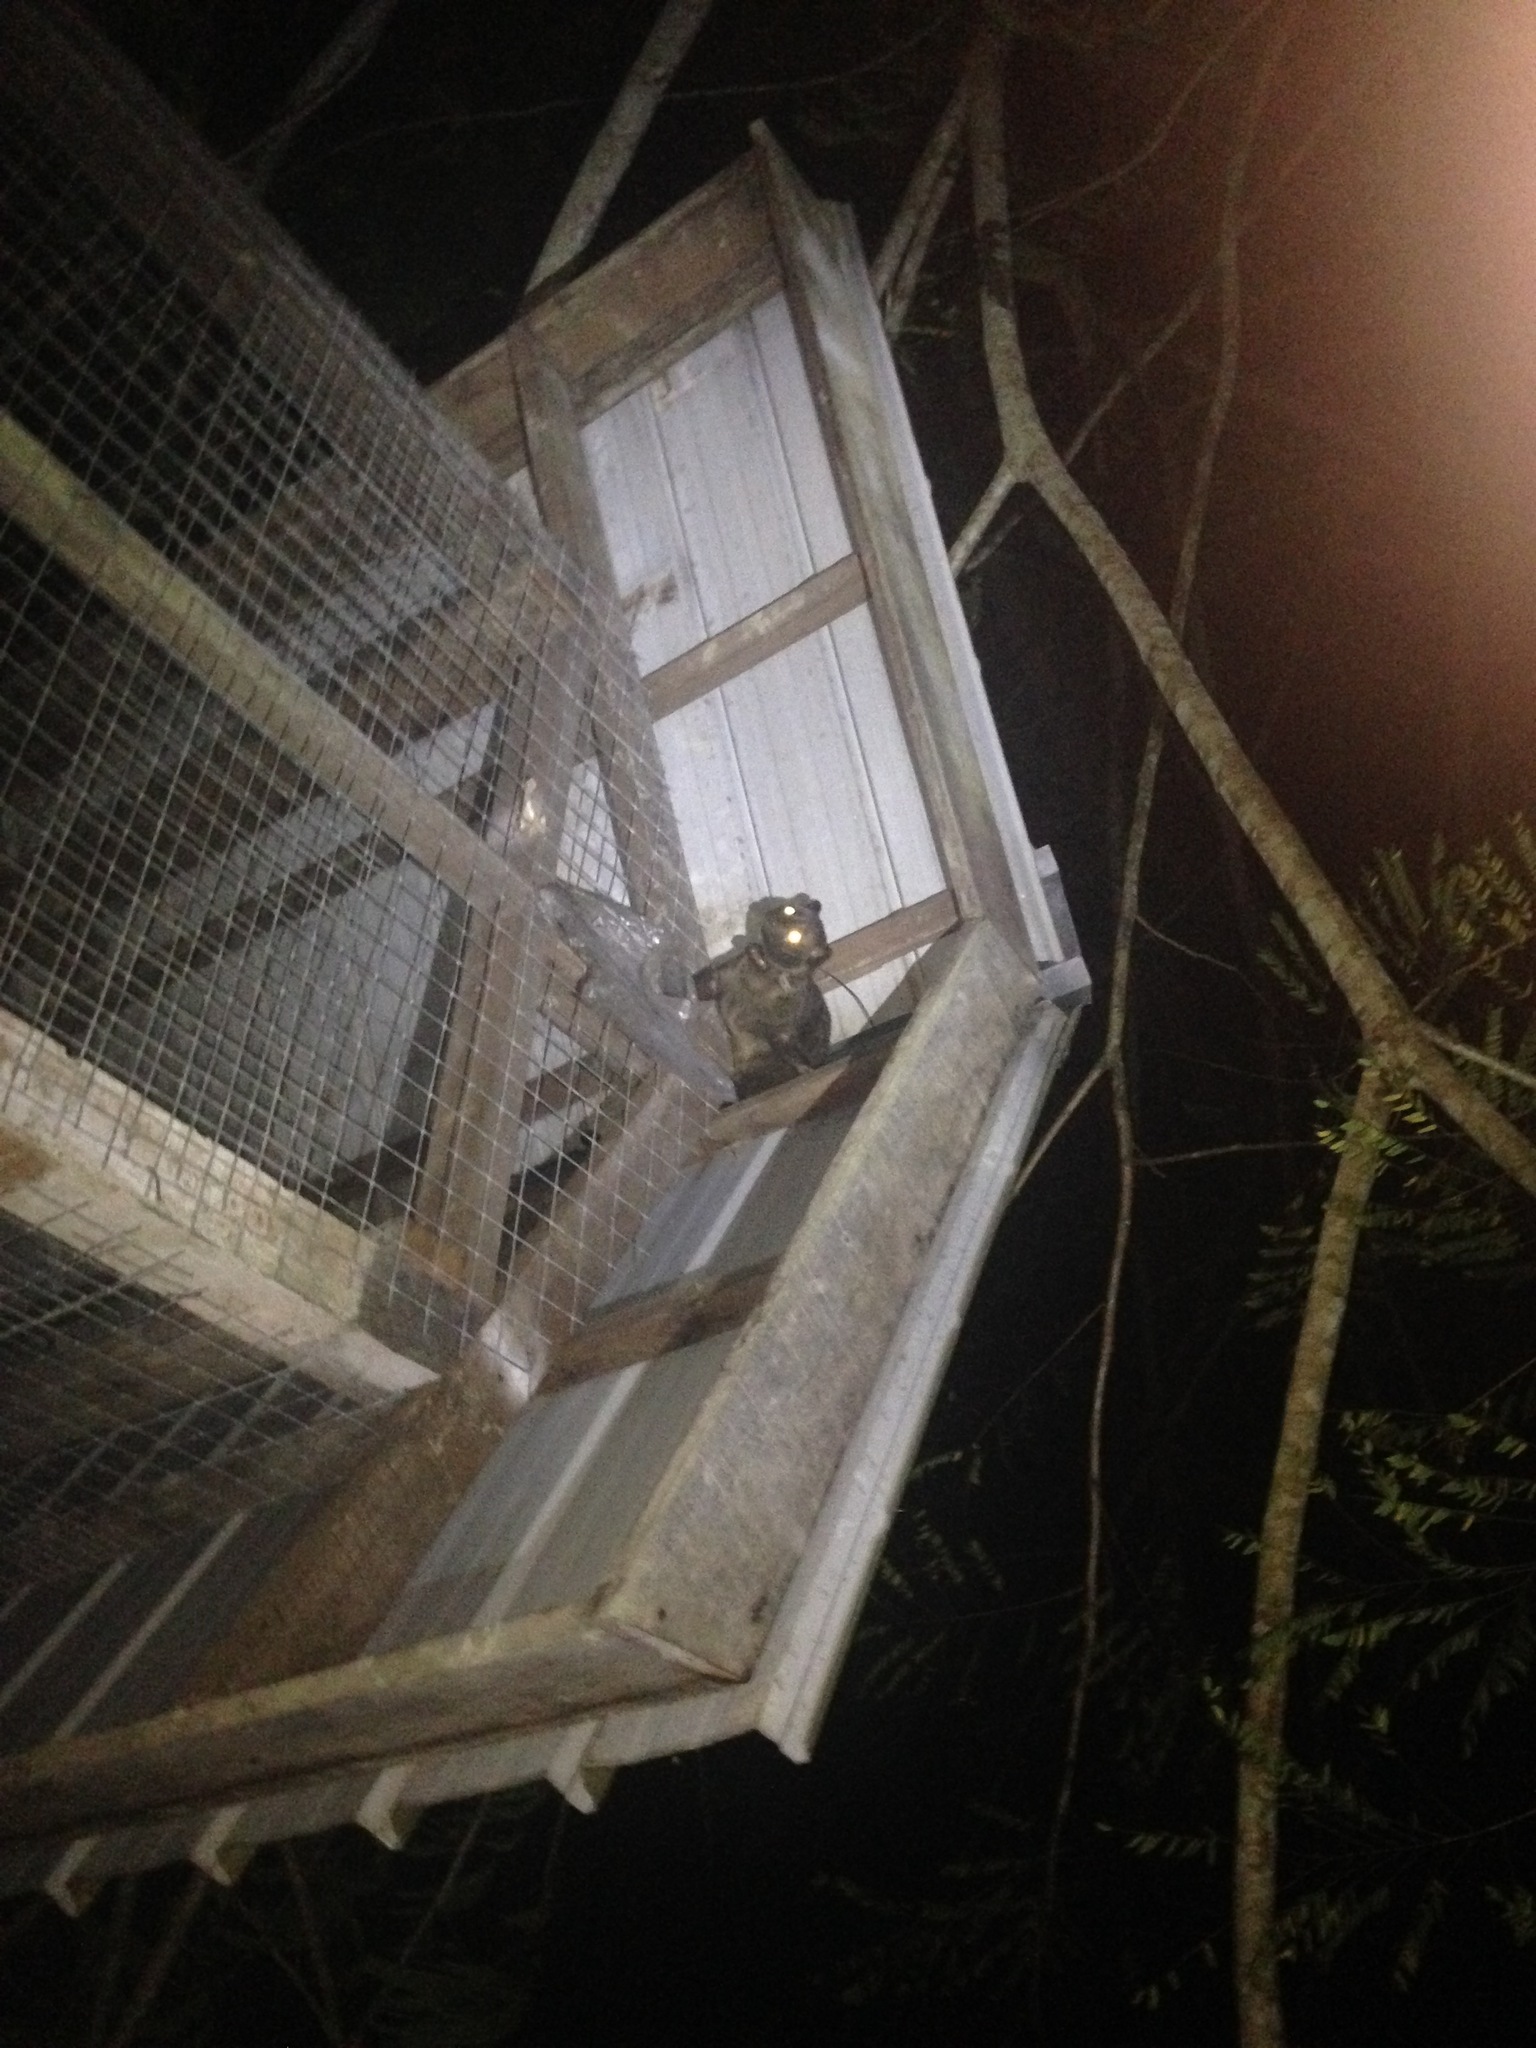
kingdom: Animalia
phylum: Chordata
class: Mammalia
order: Carnivora
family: Viverridae
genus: Paradoxurus
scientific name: Paradoxurus hermaphroditus
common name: Common palm civet
